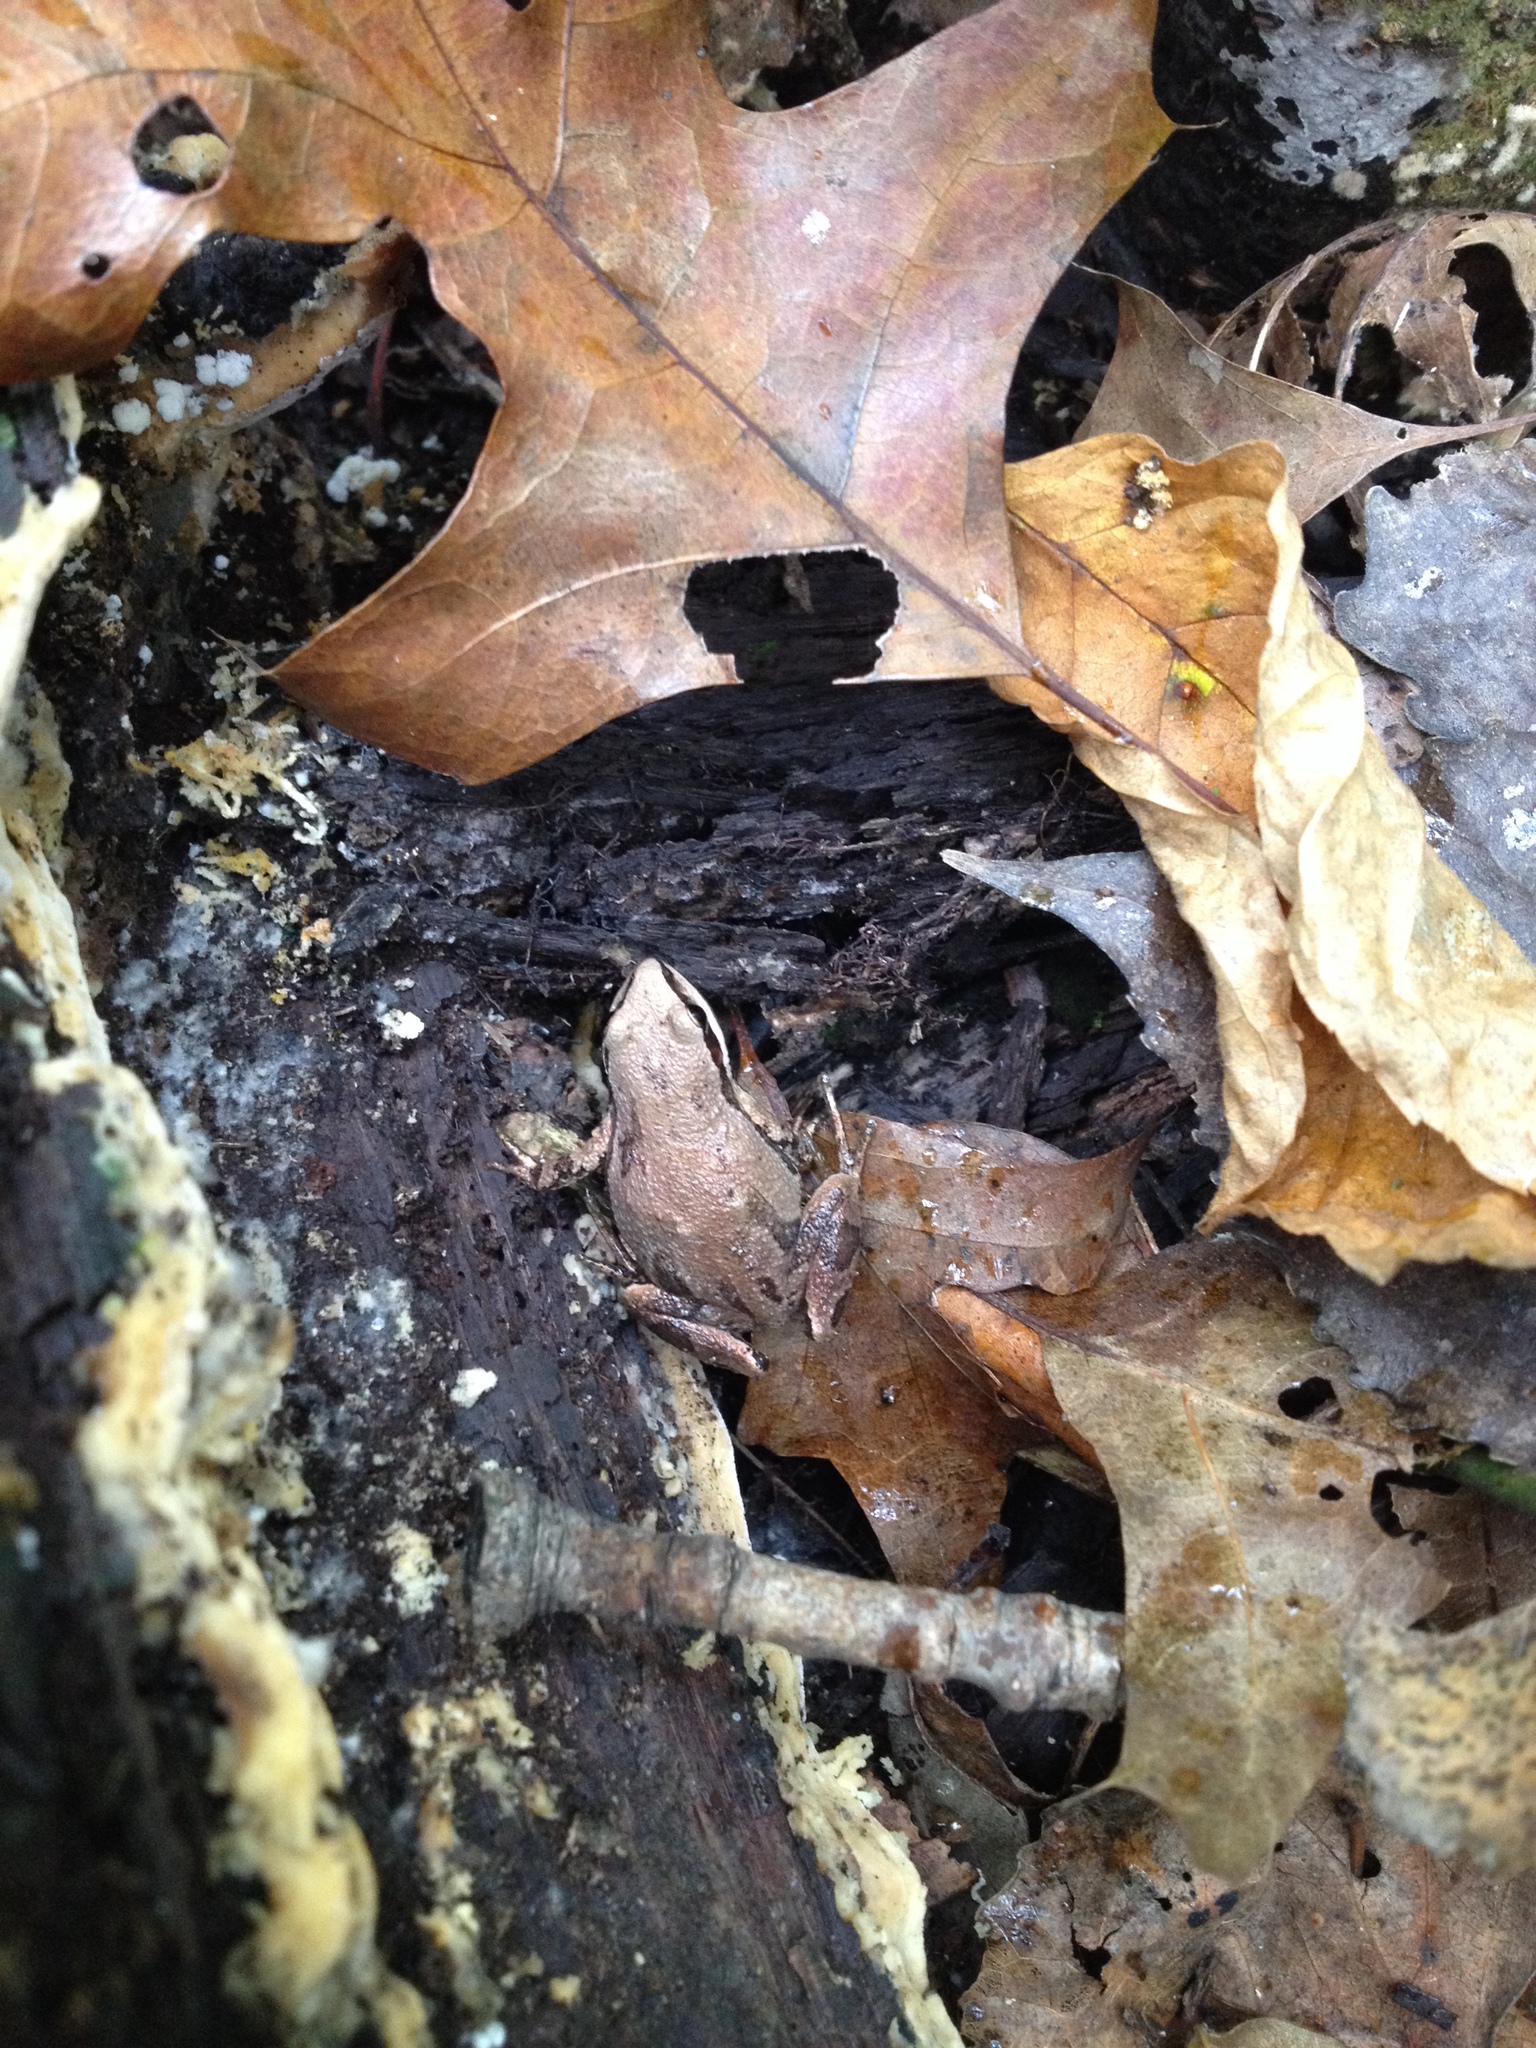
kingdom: Animalia
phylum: Chordata
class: Amphibia
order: Anura
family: Hylidae
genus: Pseudacris
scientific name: Pseudacris triseriata
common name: Western chorus frog
